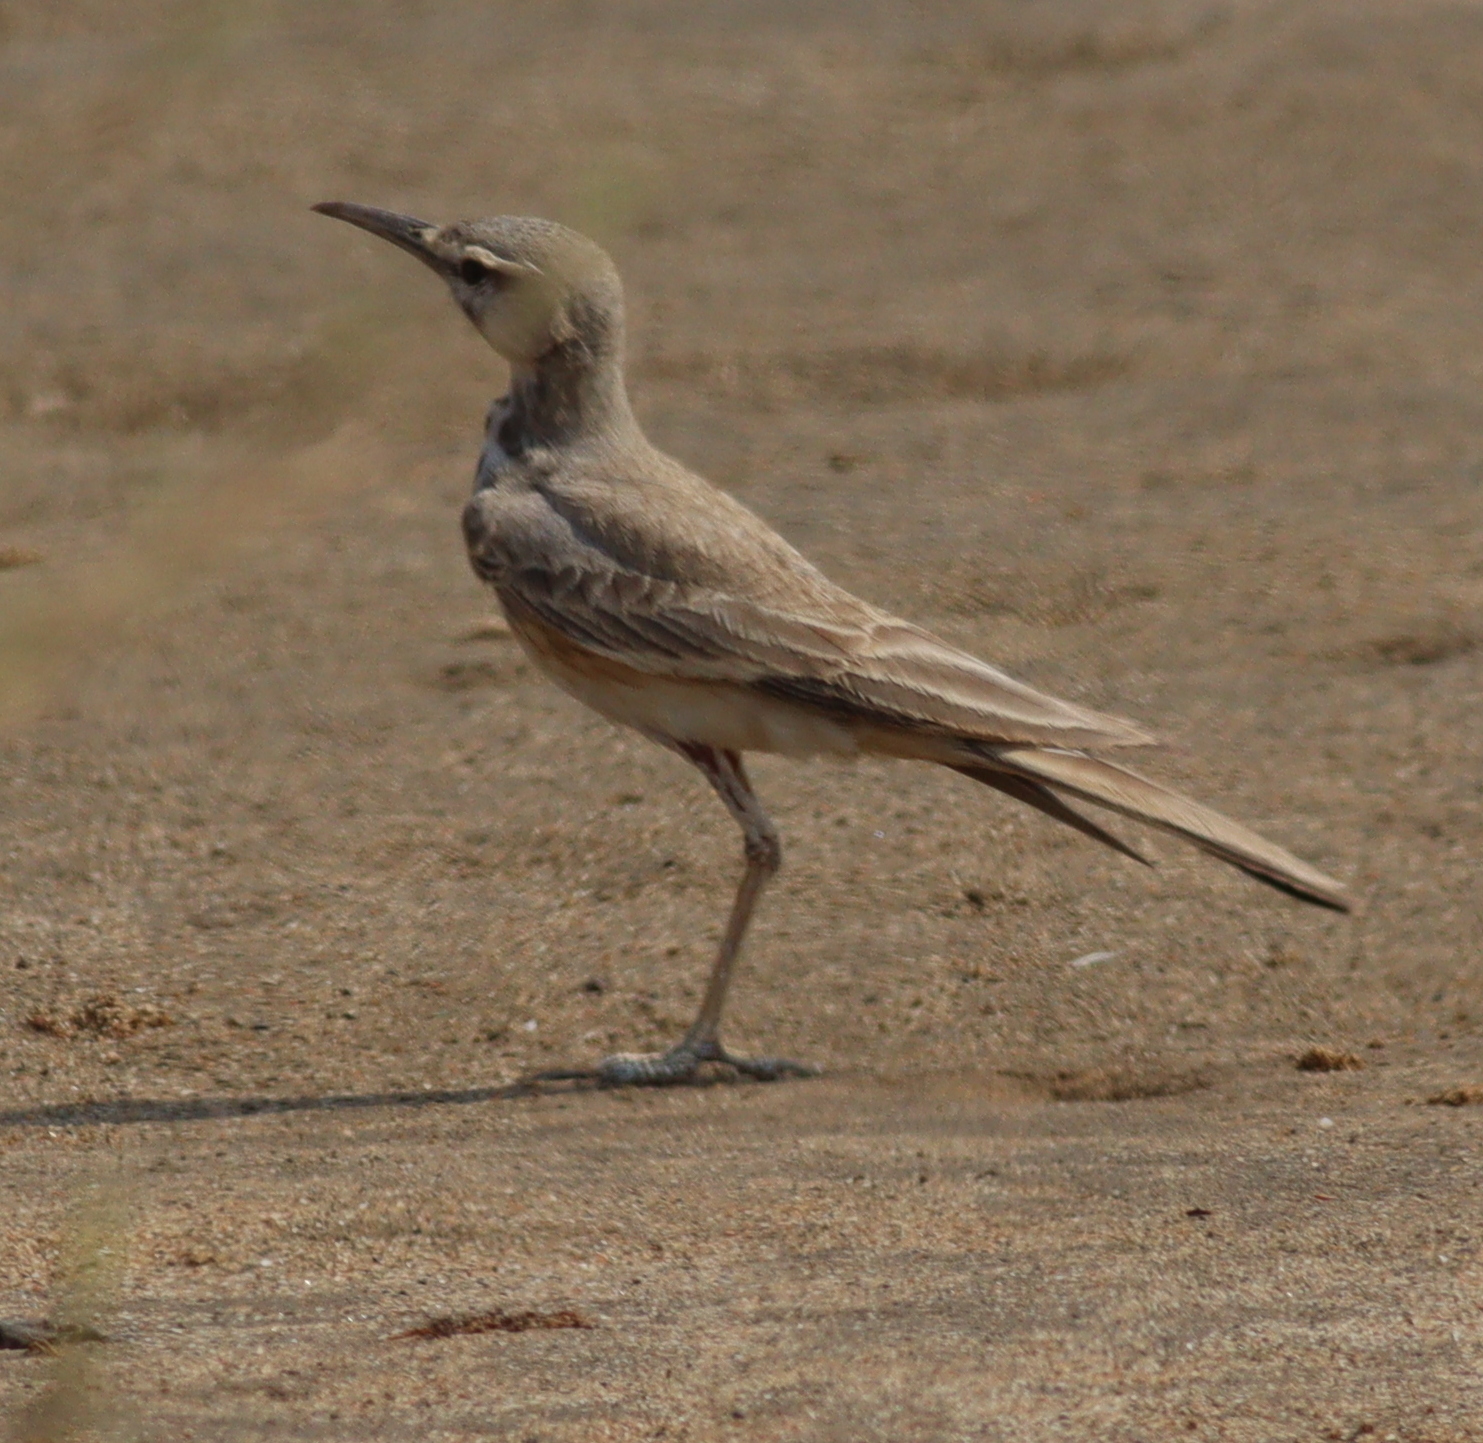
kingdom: Animalia
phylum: Chordata
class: Aves
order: Passeriformes
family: Alaudidae
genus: Alaemon
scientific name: Alaemon alaudipes
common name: Greater hoopoe-lark
